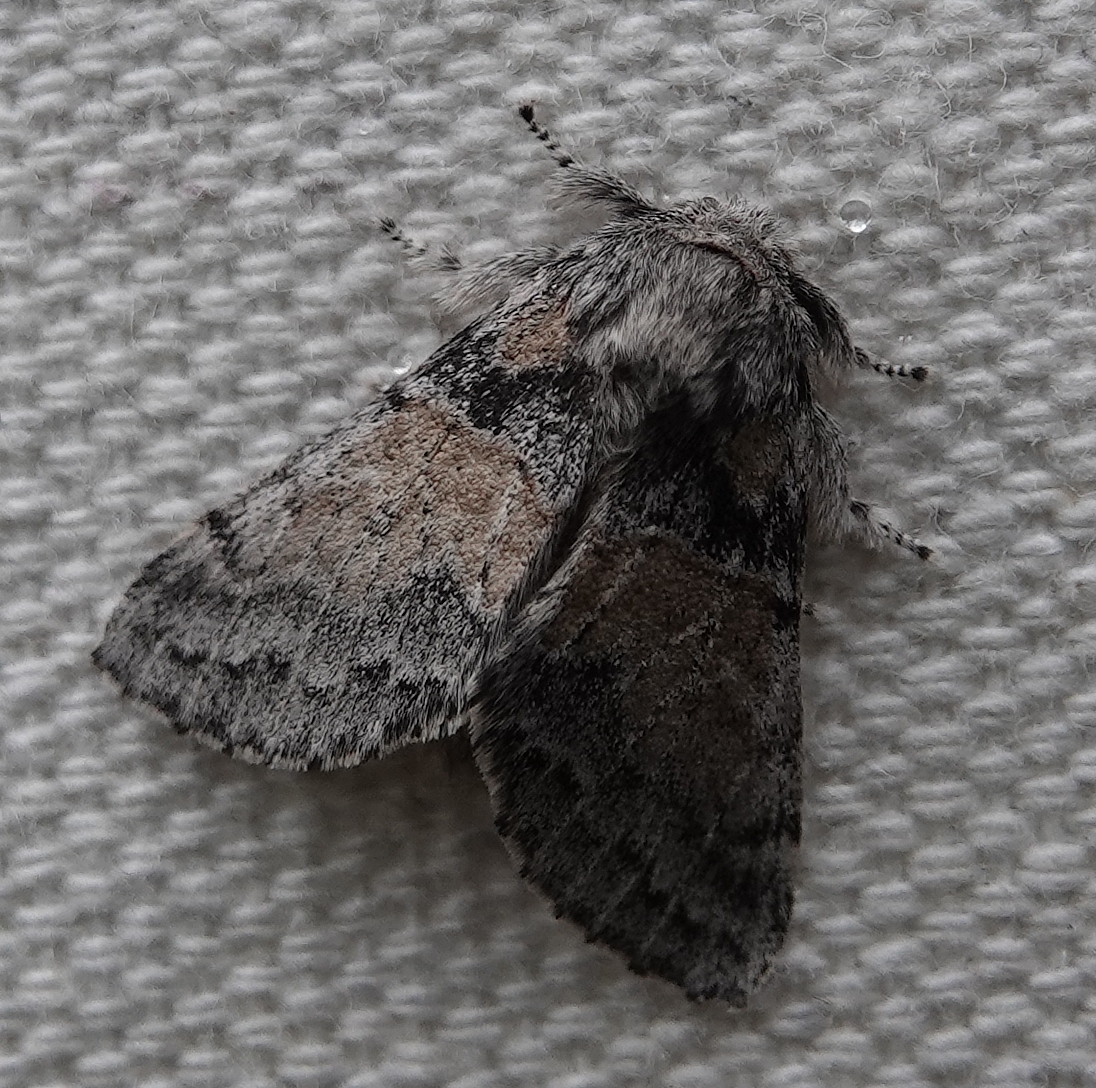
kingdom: Animalia
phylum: Arthropoda
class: Insecta
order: Lepidoptera
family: Notodontidae
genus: Gluphisia
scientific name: Gluphisia septentrionis
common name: Common gluphisia
